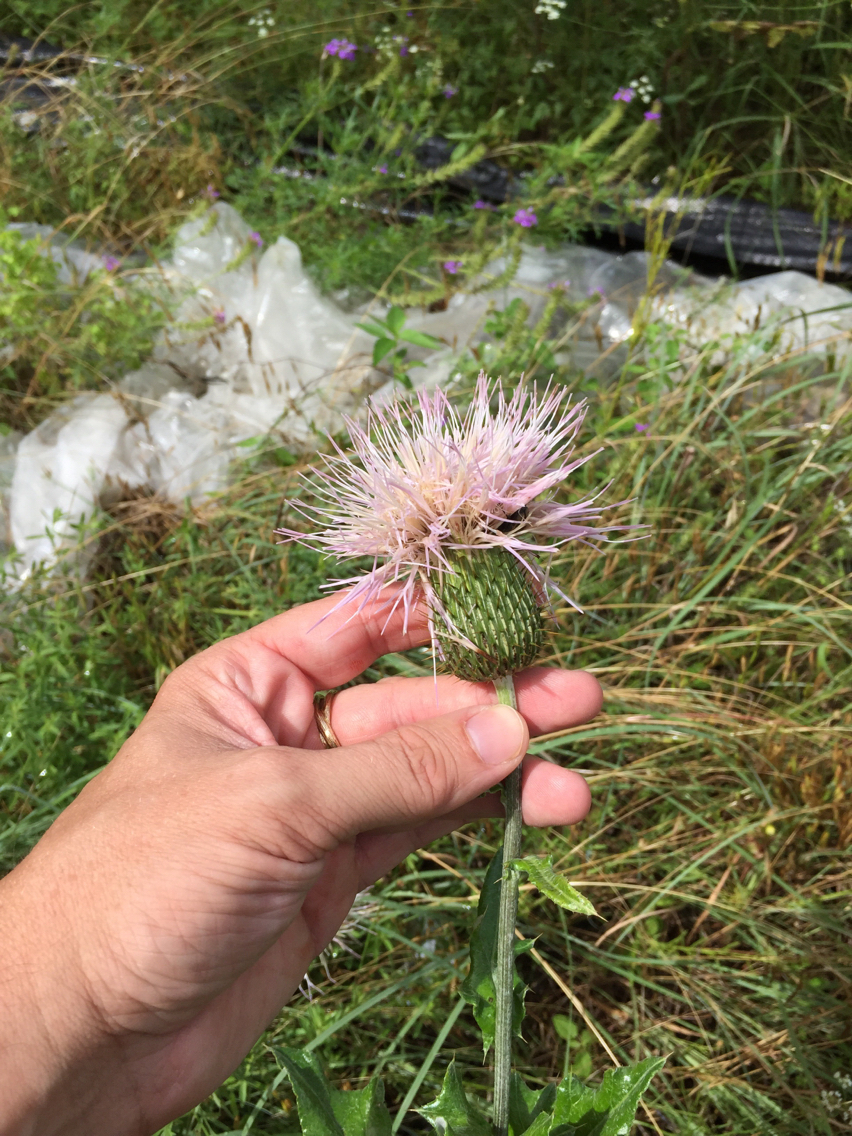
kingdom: Plantae
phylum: Tracheophyta
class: Magnoliopsida
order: Asterales
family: Asteraceae
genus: Cirsium
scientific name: Cirsium undulatum
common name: Pasture thistle
